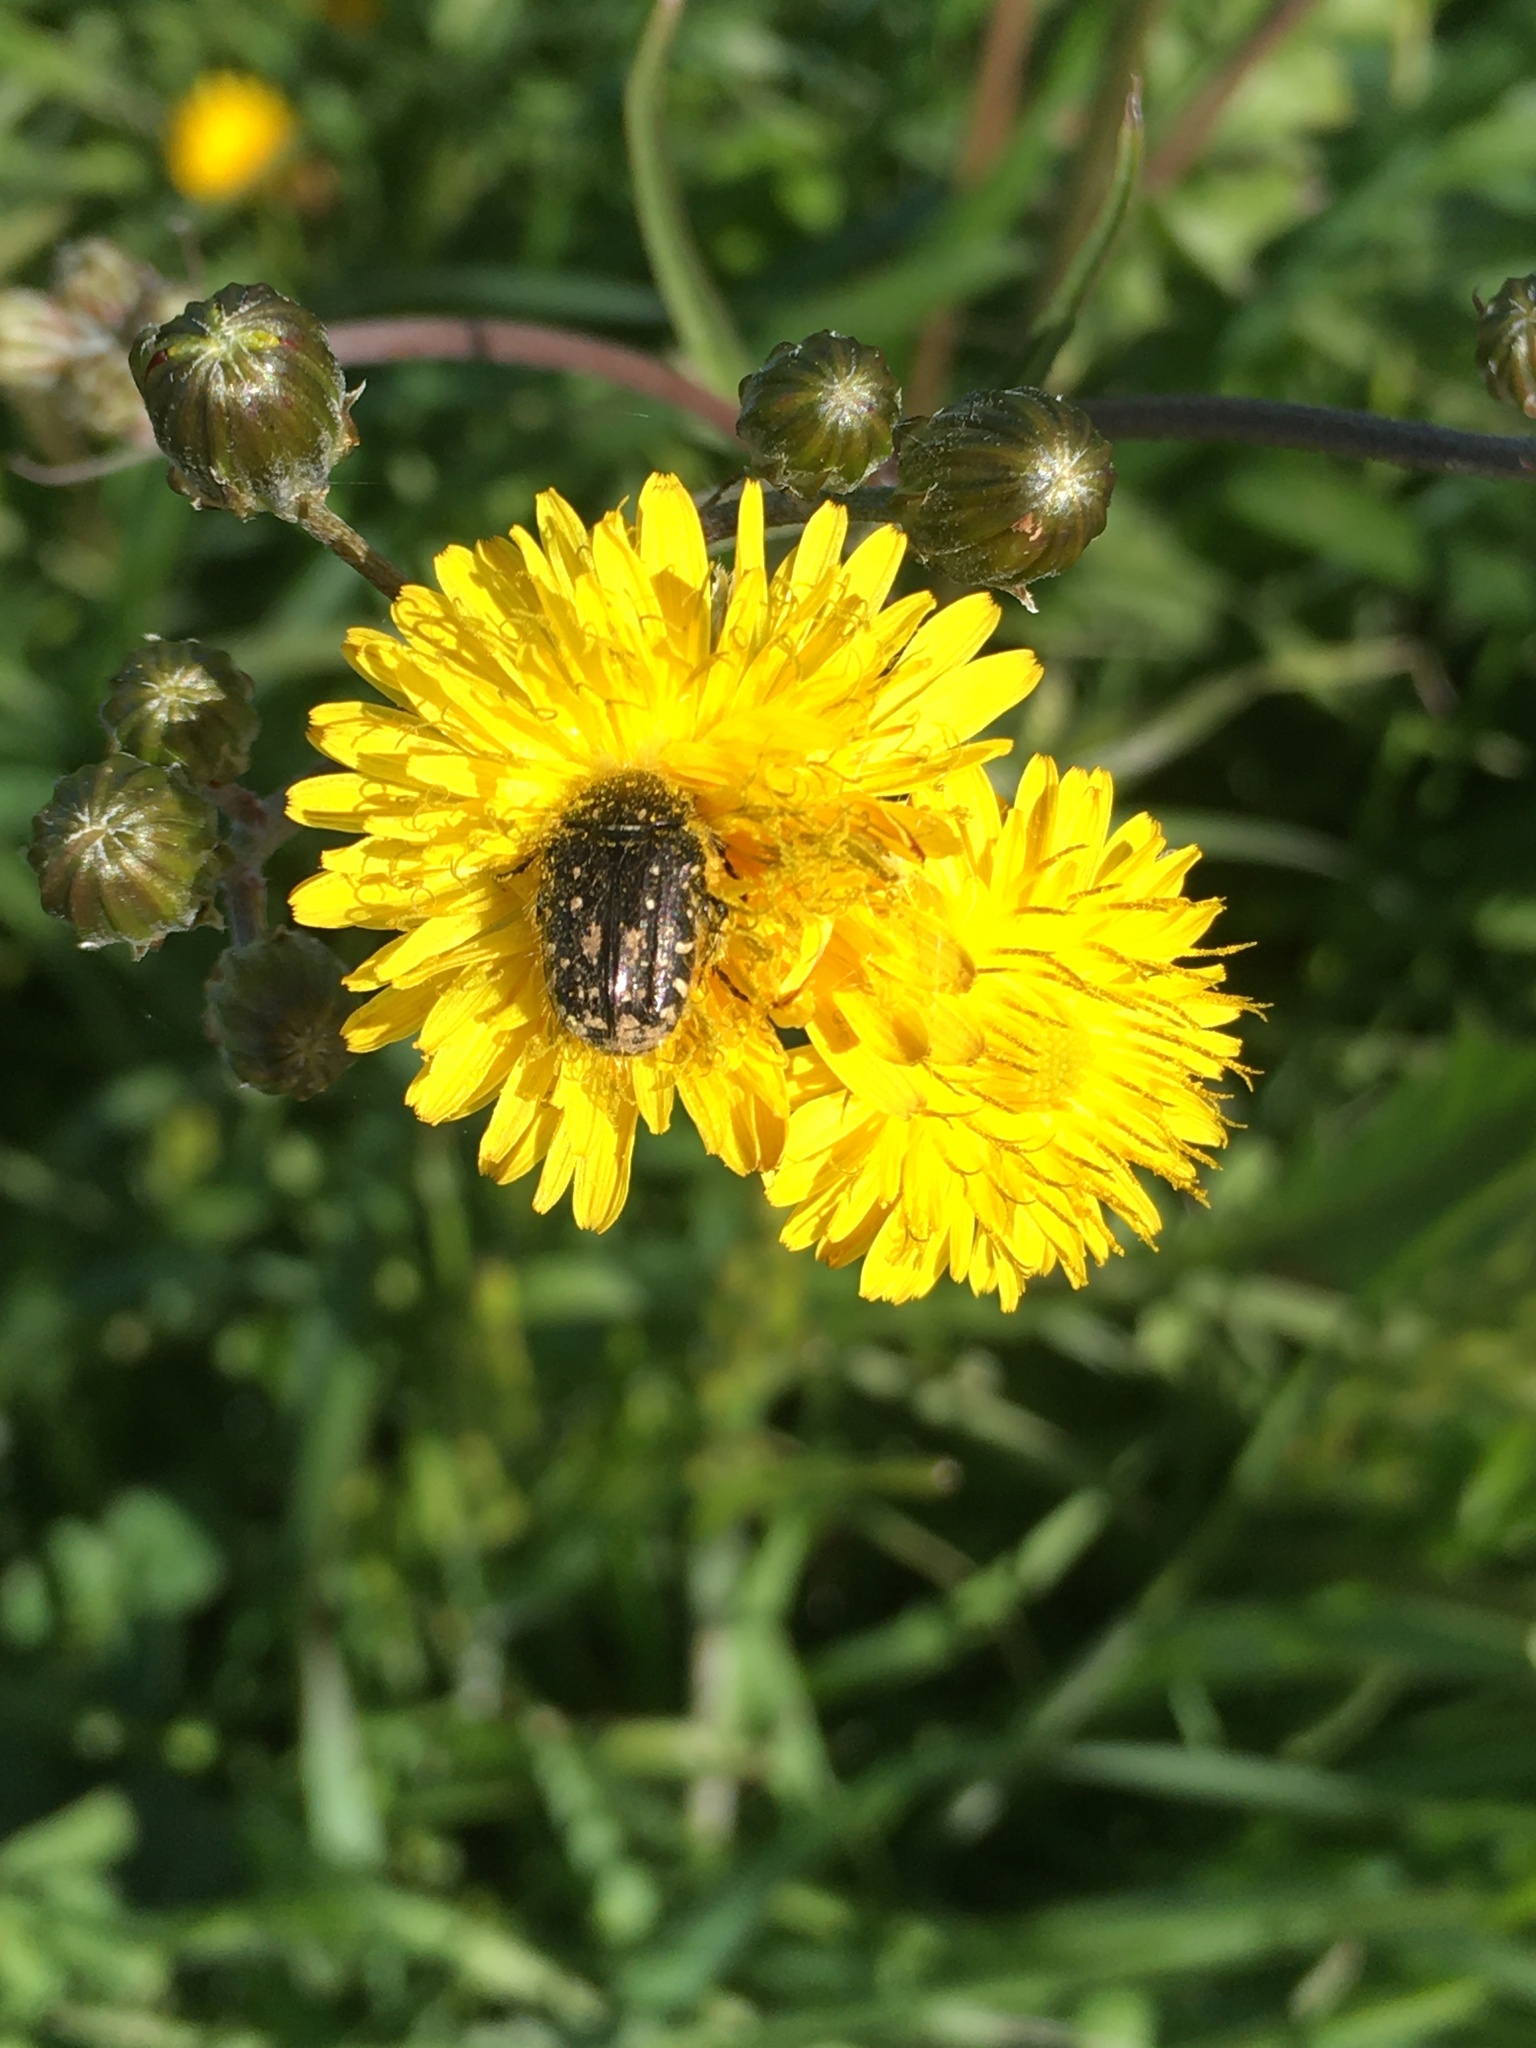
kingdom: Animalia
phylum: Arthropoda
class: Insecta
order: Coleoptera
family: Scarabaeidae
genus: Oxythyrea
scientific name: Oxythyrea funesta
